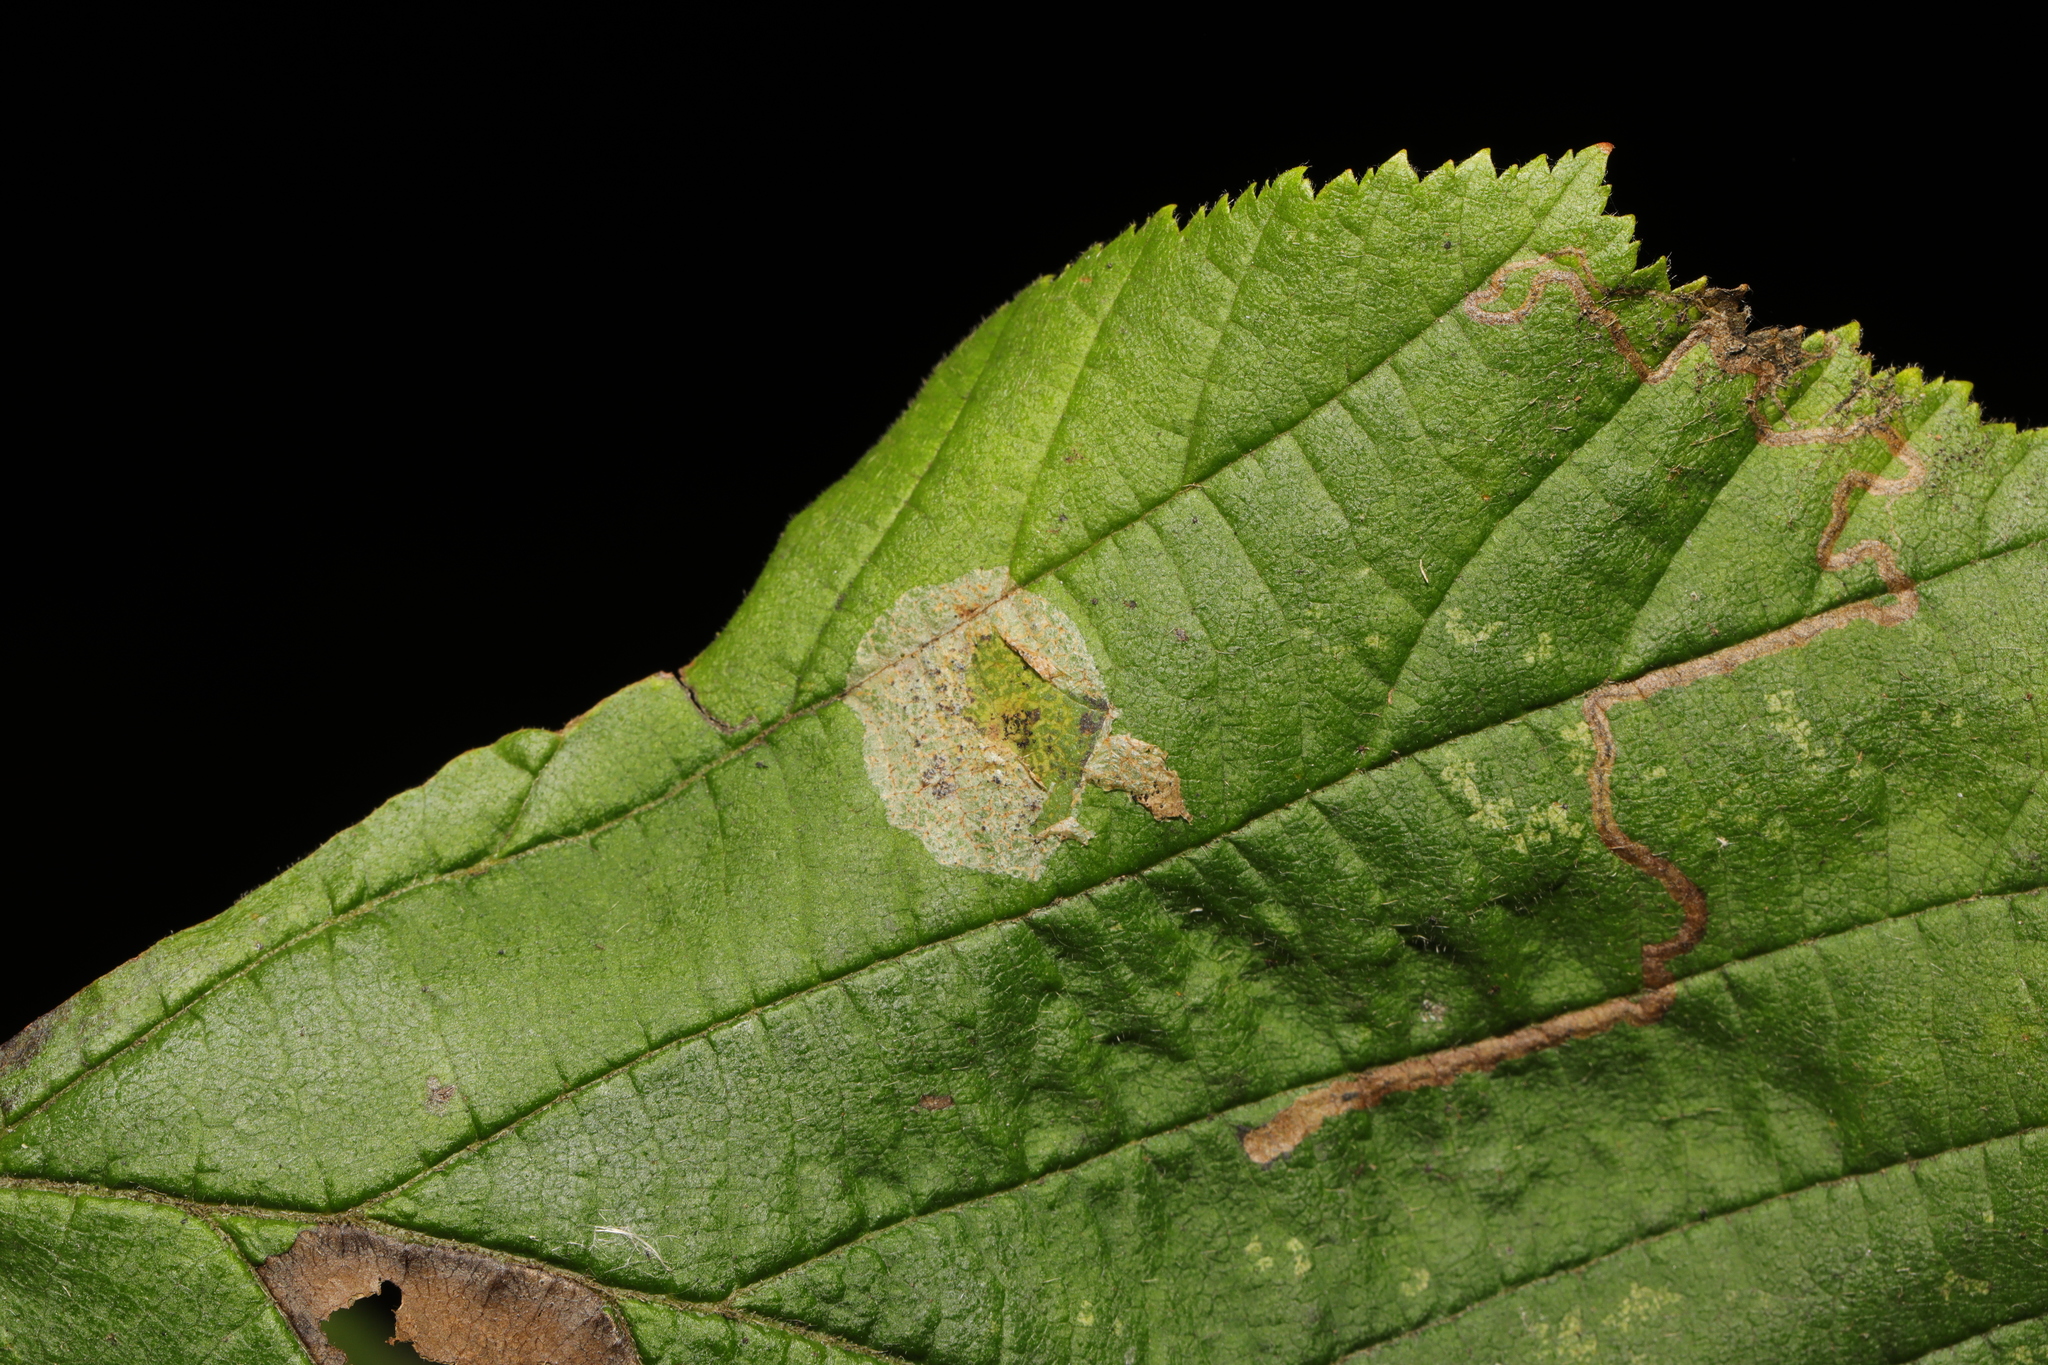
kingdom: Animalia
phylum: Arthropoda
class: Insecta
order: Lepidoptera
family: Gracillariidae
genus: Phyllonorycter
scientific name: Phyllonorycter coryli
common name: Nut-leaf blister moth
